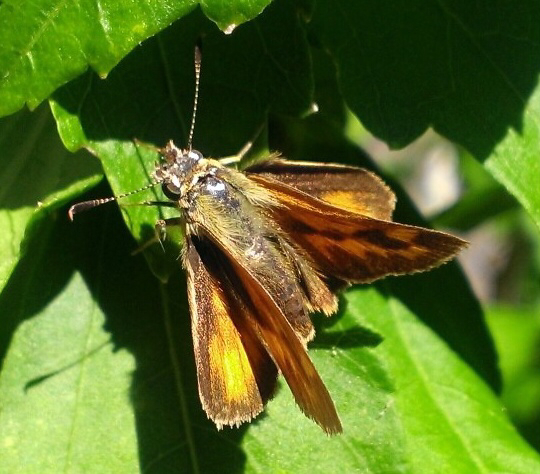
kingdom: Animalia
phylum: Arthropoda
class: Insecta
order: Lepidoptera
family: Hesperiidae
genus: Ochlodes
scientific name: Ochlodes sylvanoides
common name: Woodland skipper
